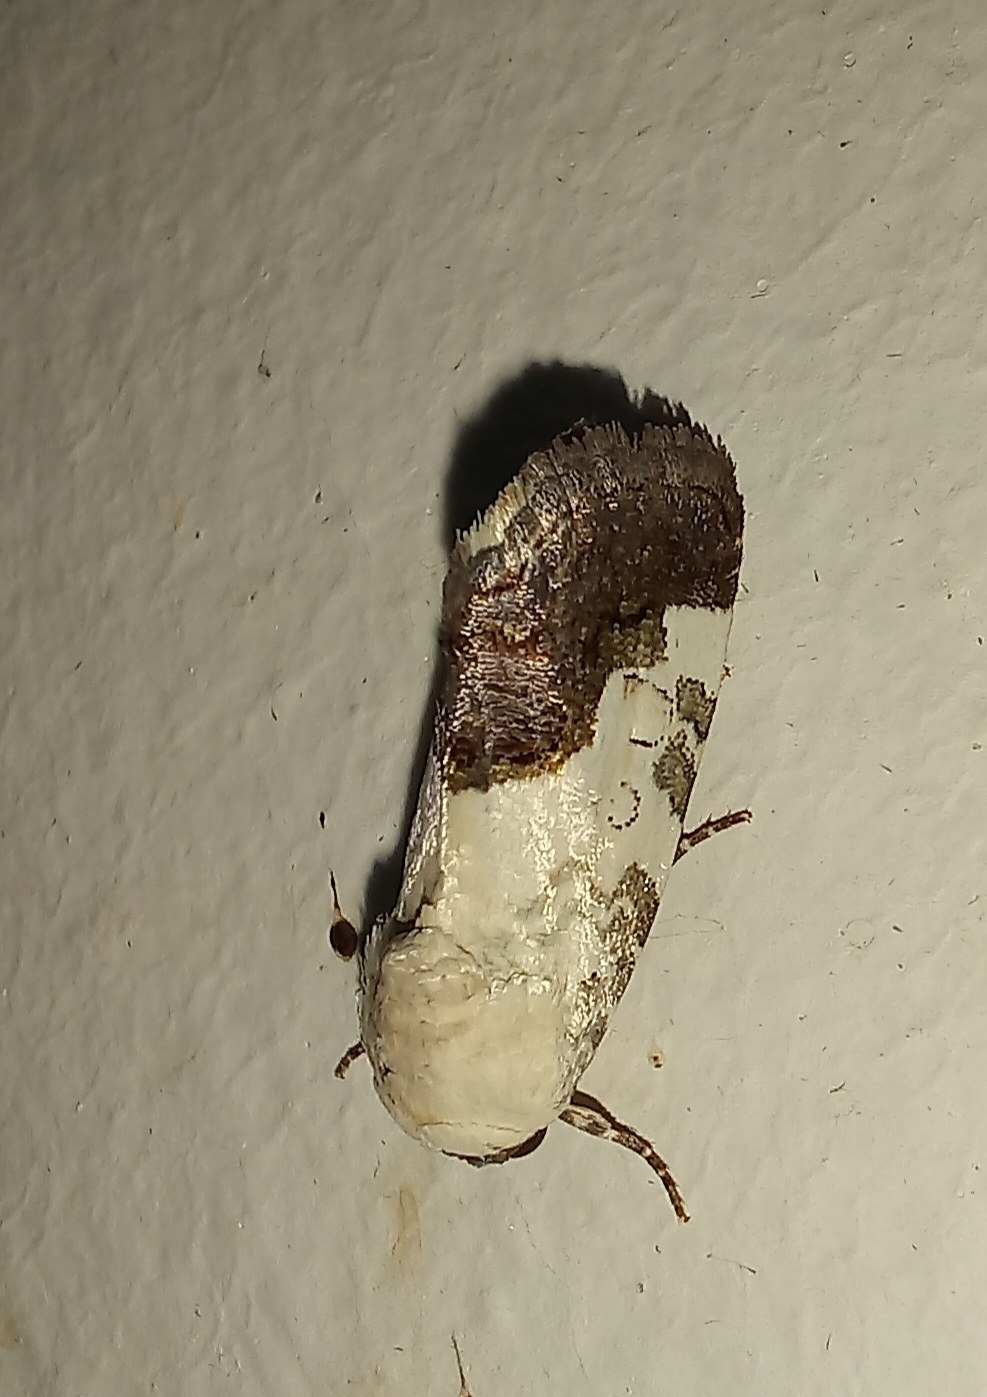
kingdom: Animalia
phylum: Arthropoda
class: Insecta
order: Lepidoptera
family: Noctuidae
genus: Acontia
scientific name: Acontia wahlbergi
